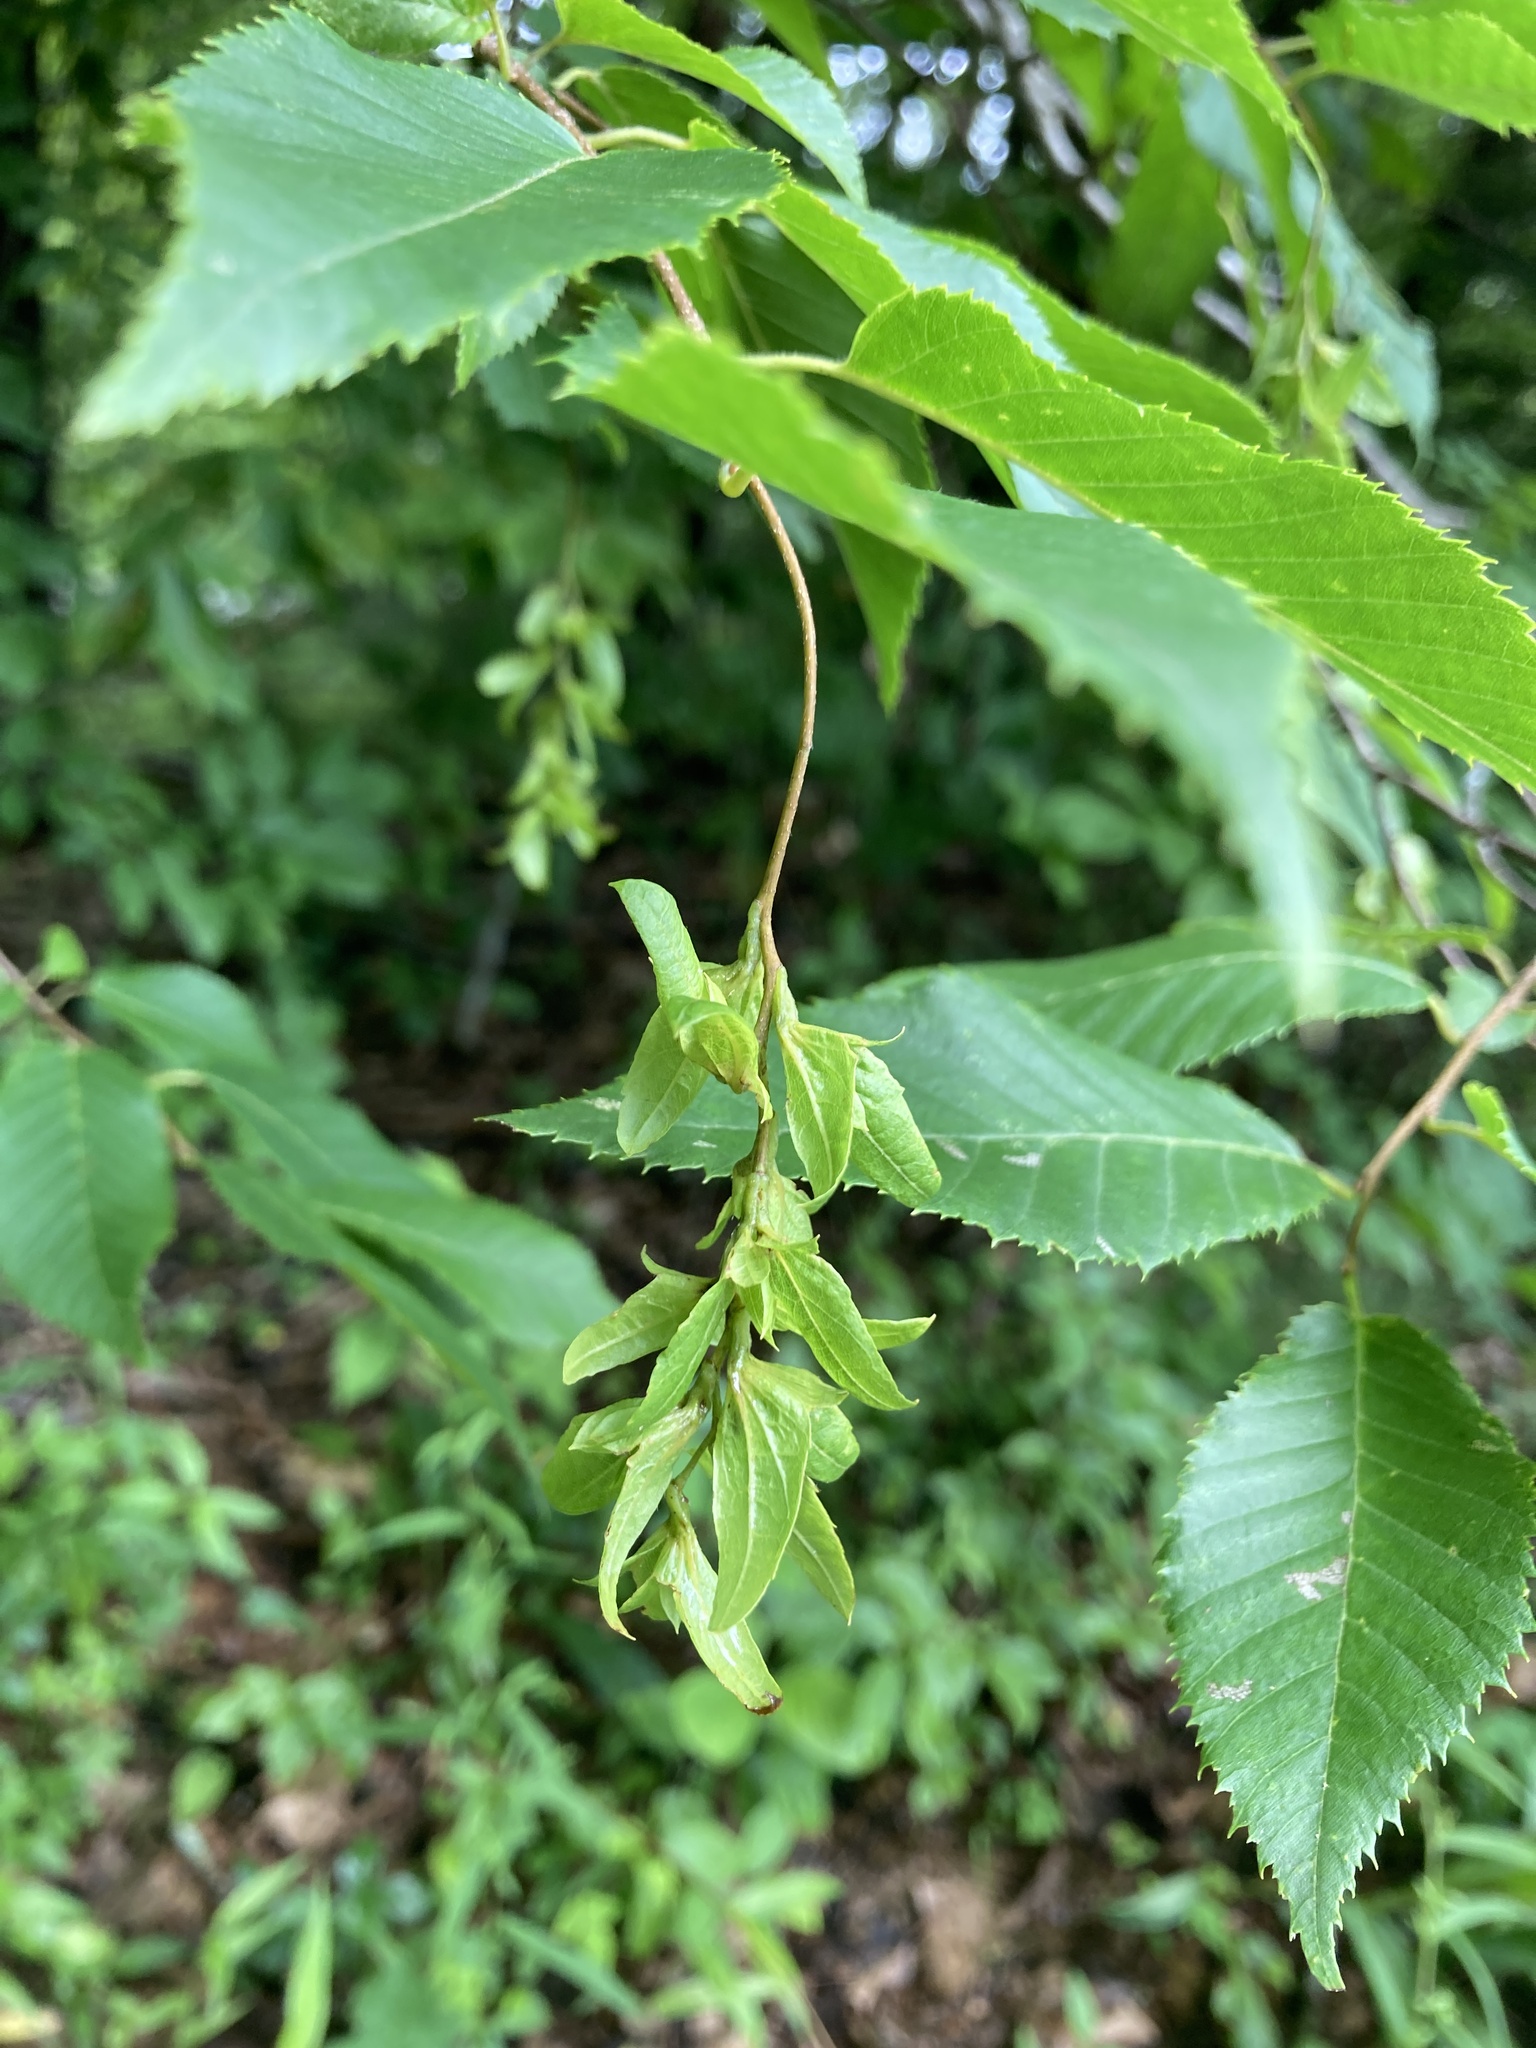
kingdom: Plantae
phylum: Tracheophyta
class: Magnoliopsida
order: Fagales
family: Betulaceae
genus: Carpinus
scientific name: Carpinus caroliniana
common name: American hornbeam
